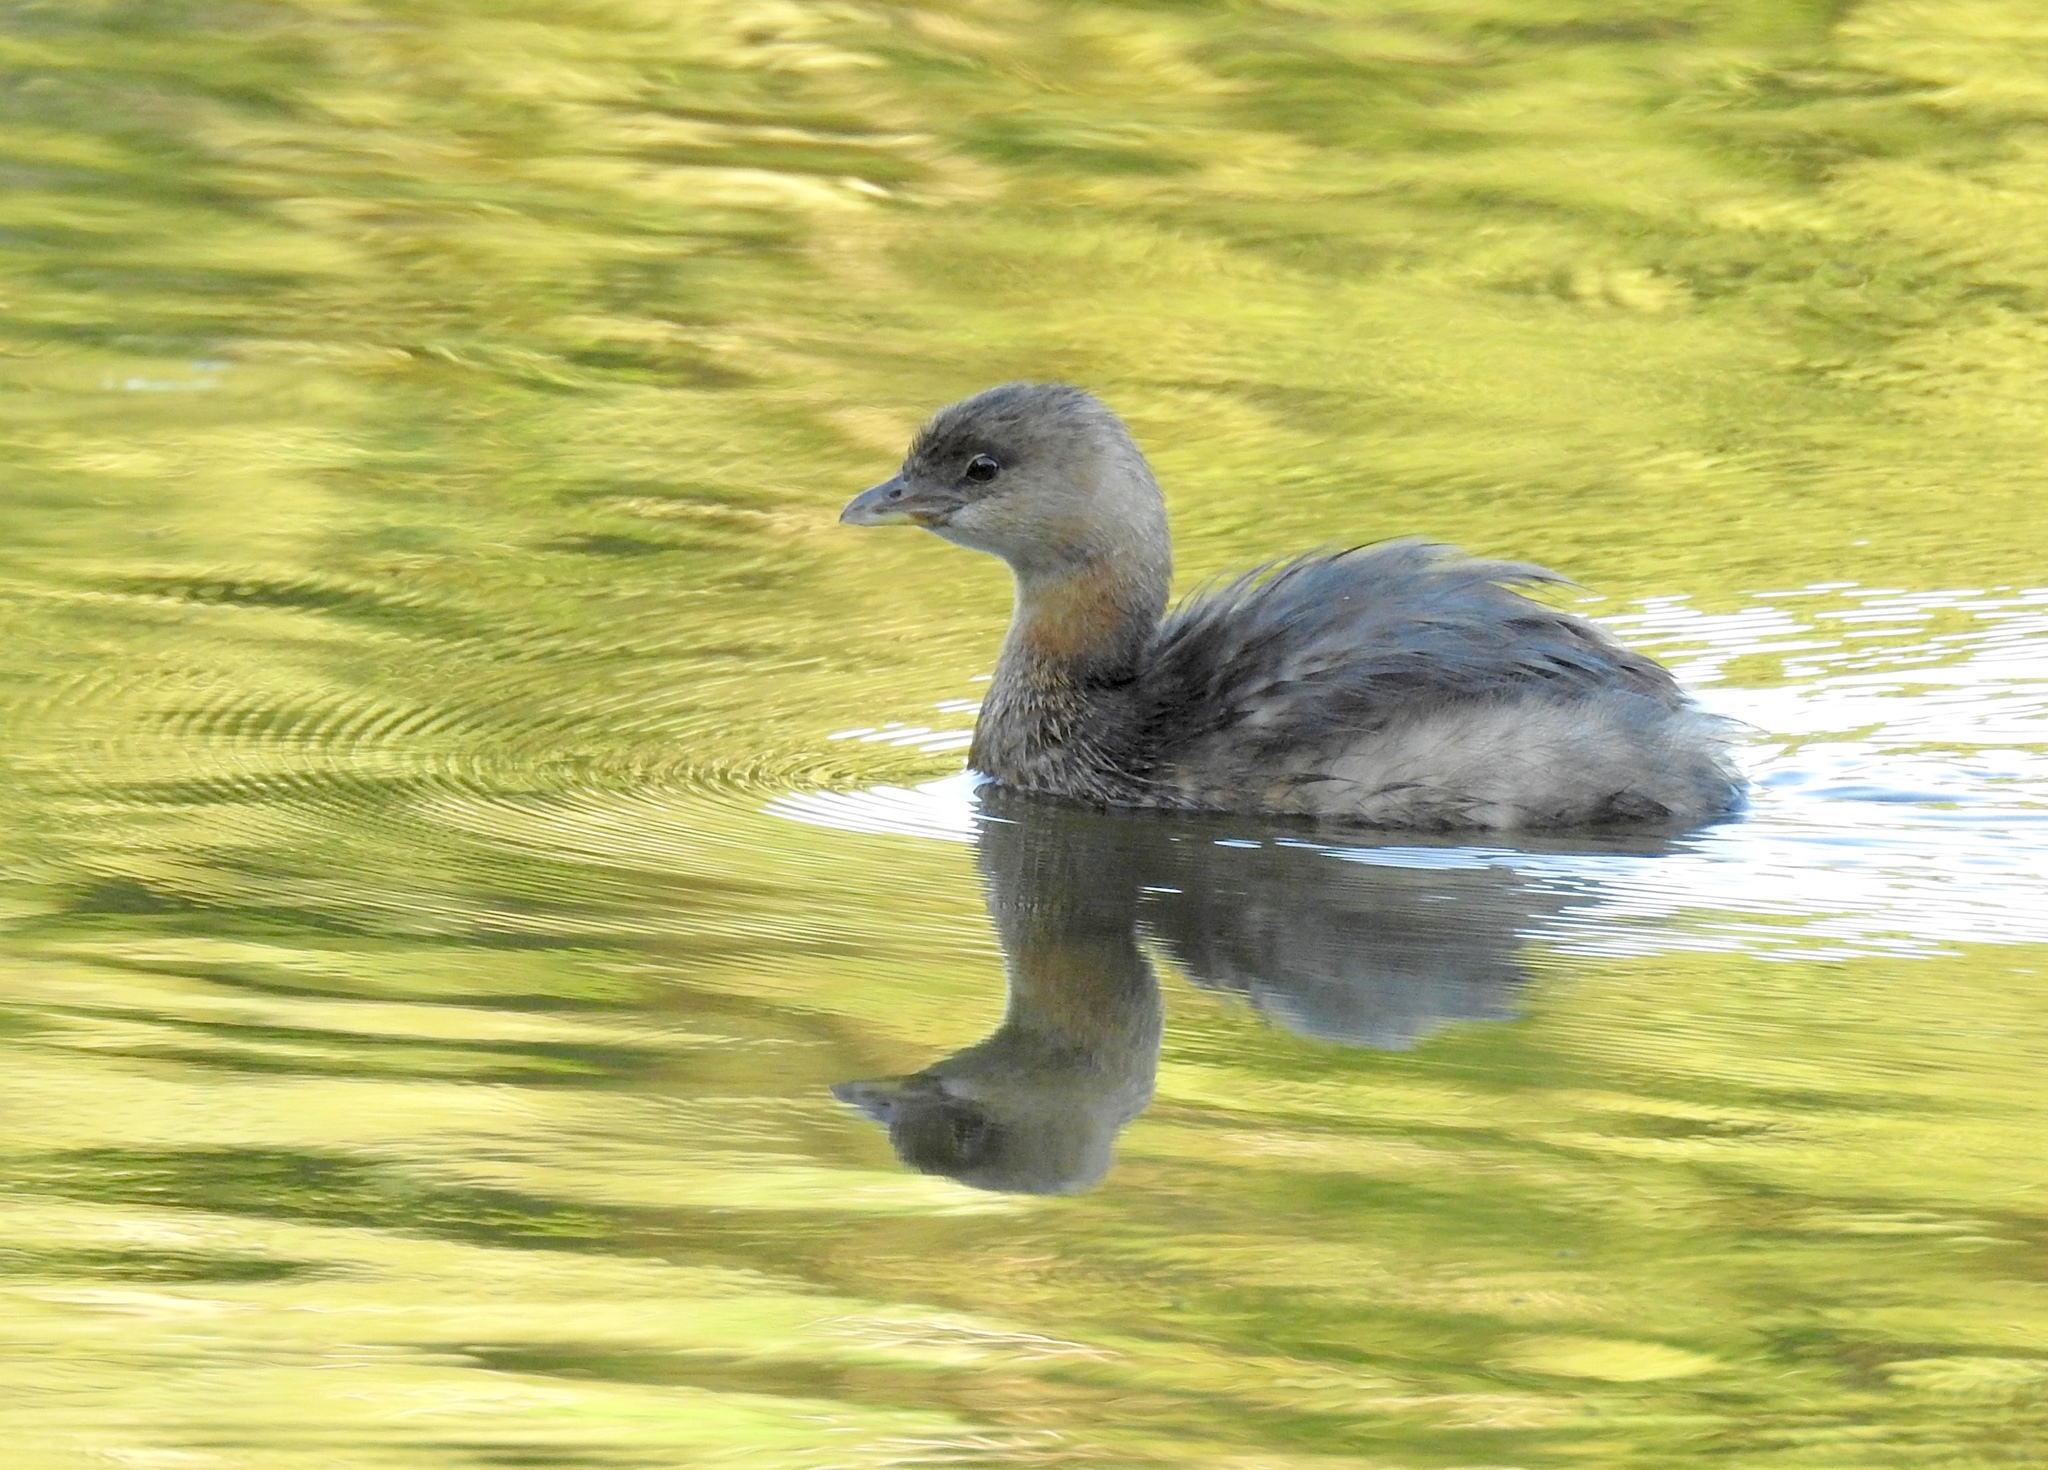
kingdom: Animalia
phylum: Chordata
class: Aves
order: Podicipediformes
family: Podicipedidae
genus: Podilymbus
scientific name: Podilymbus podiceps
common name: Pied-billed grebe
